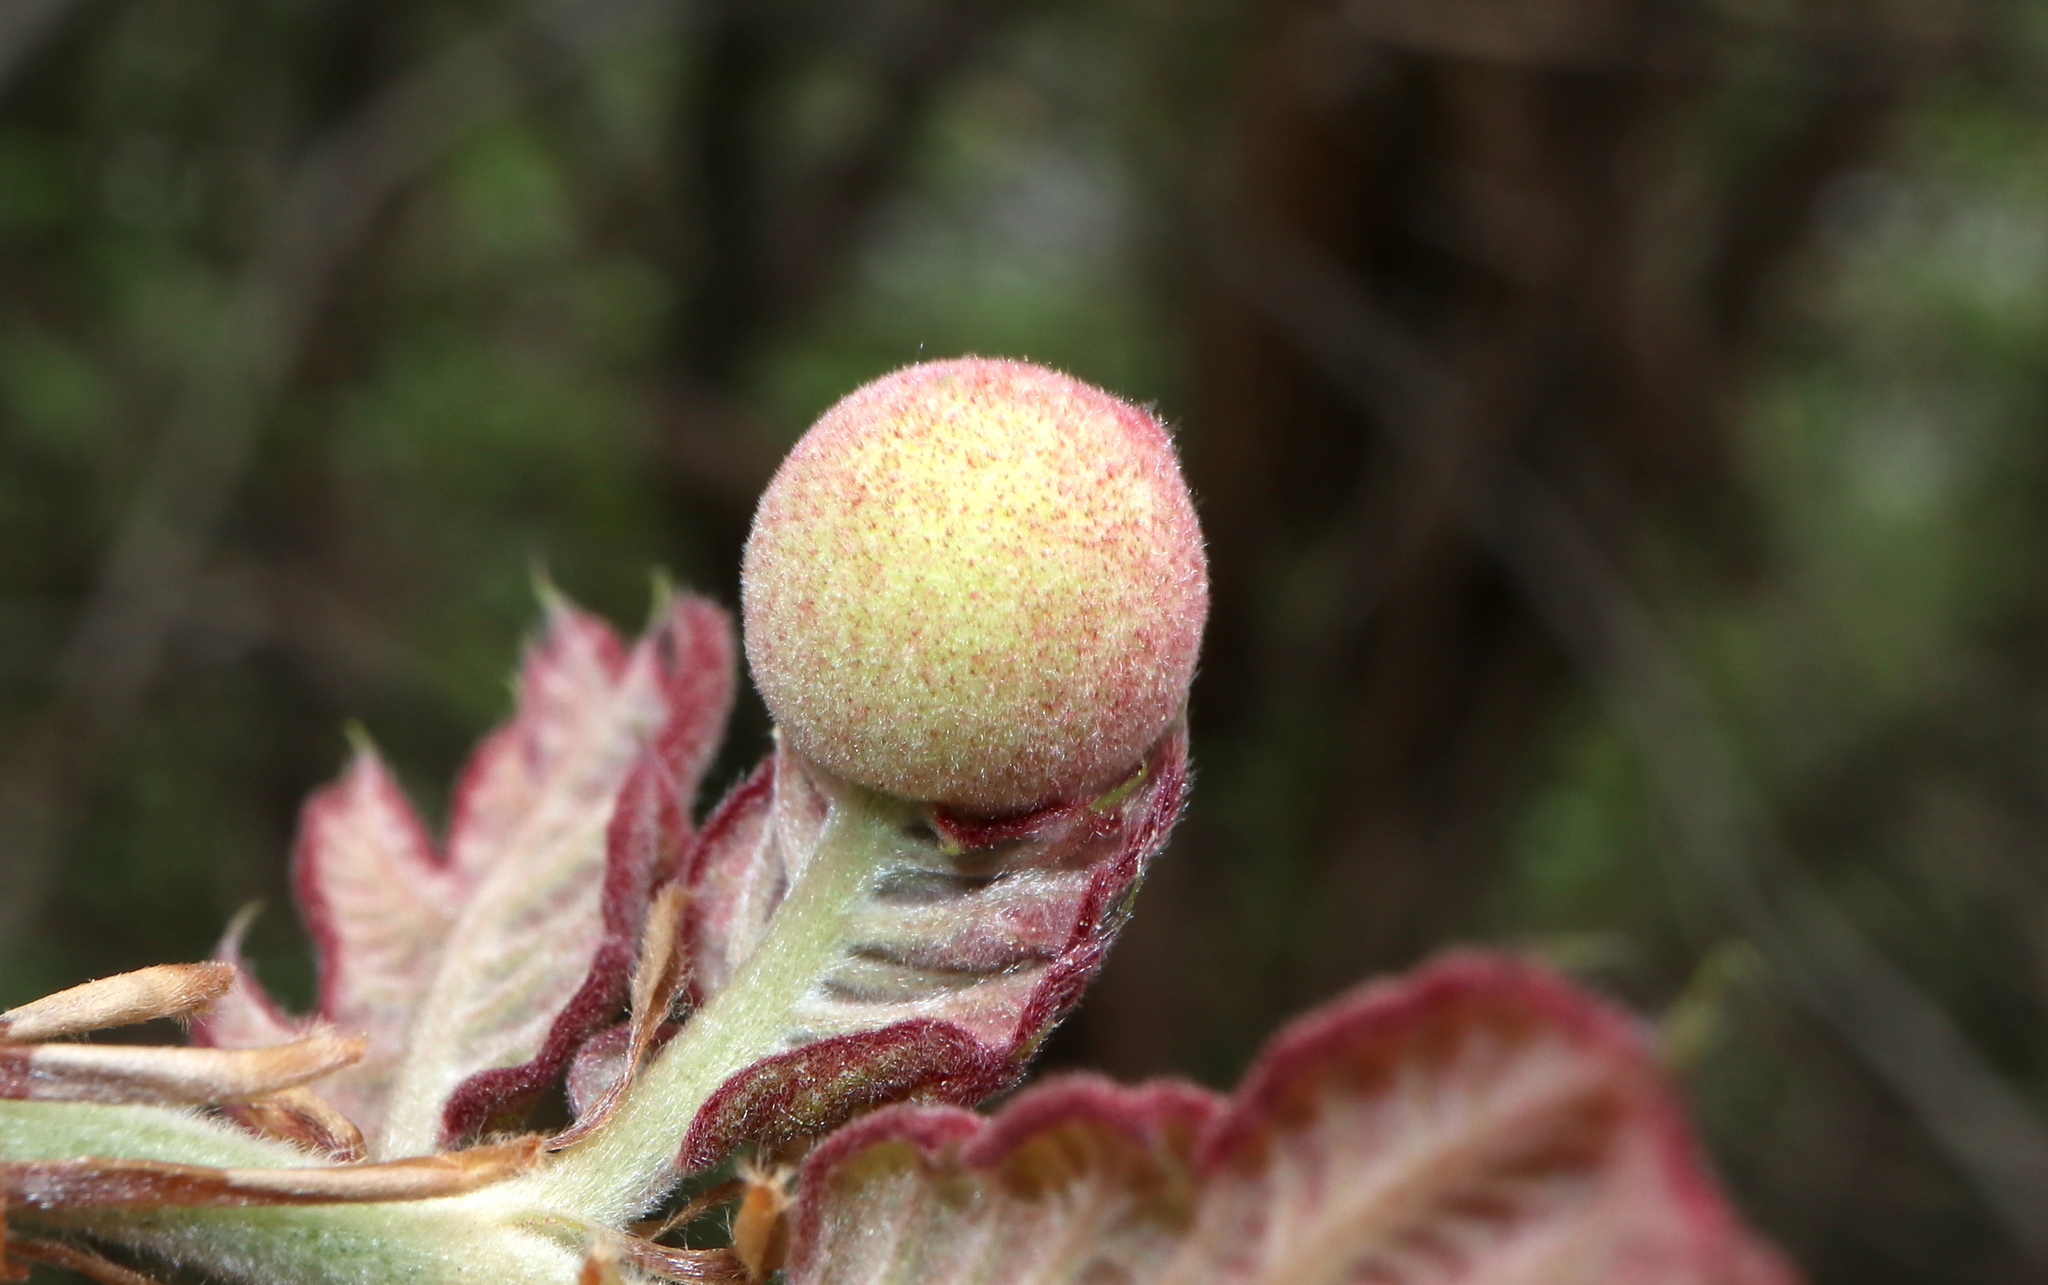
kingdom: Animalia
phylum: Arthropoda
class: Insecta
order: Hymenoptera
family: Cynipidae
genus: Amphibolips
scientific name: Amphibolips
